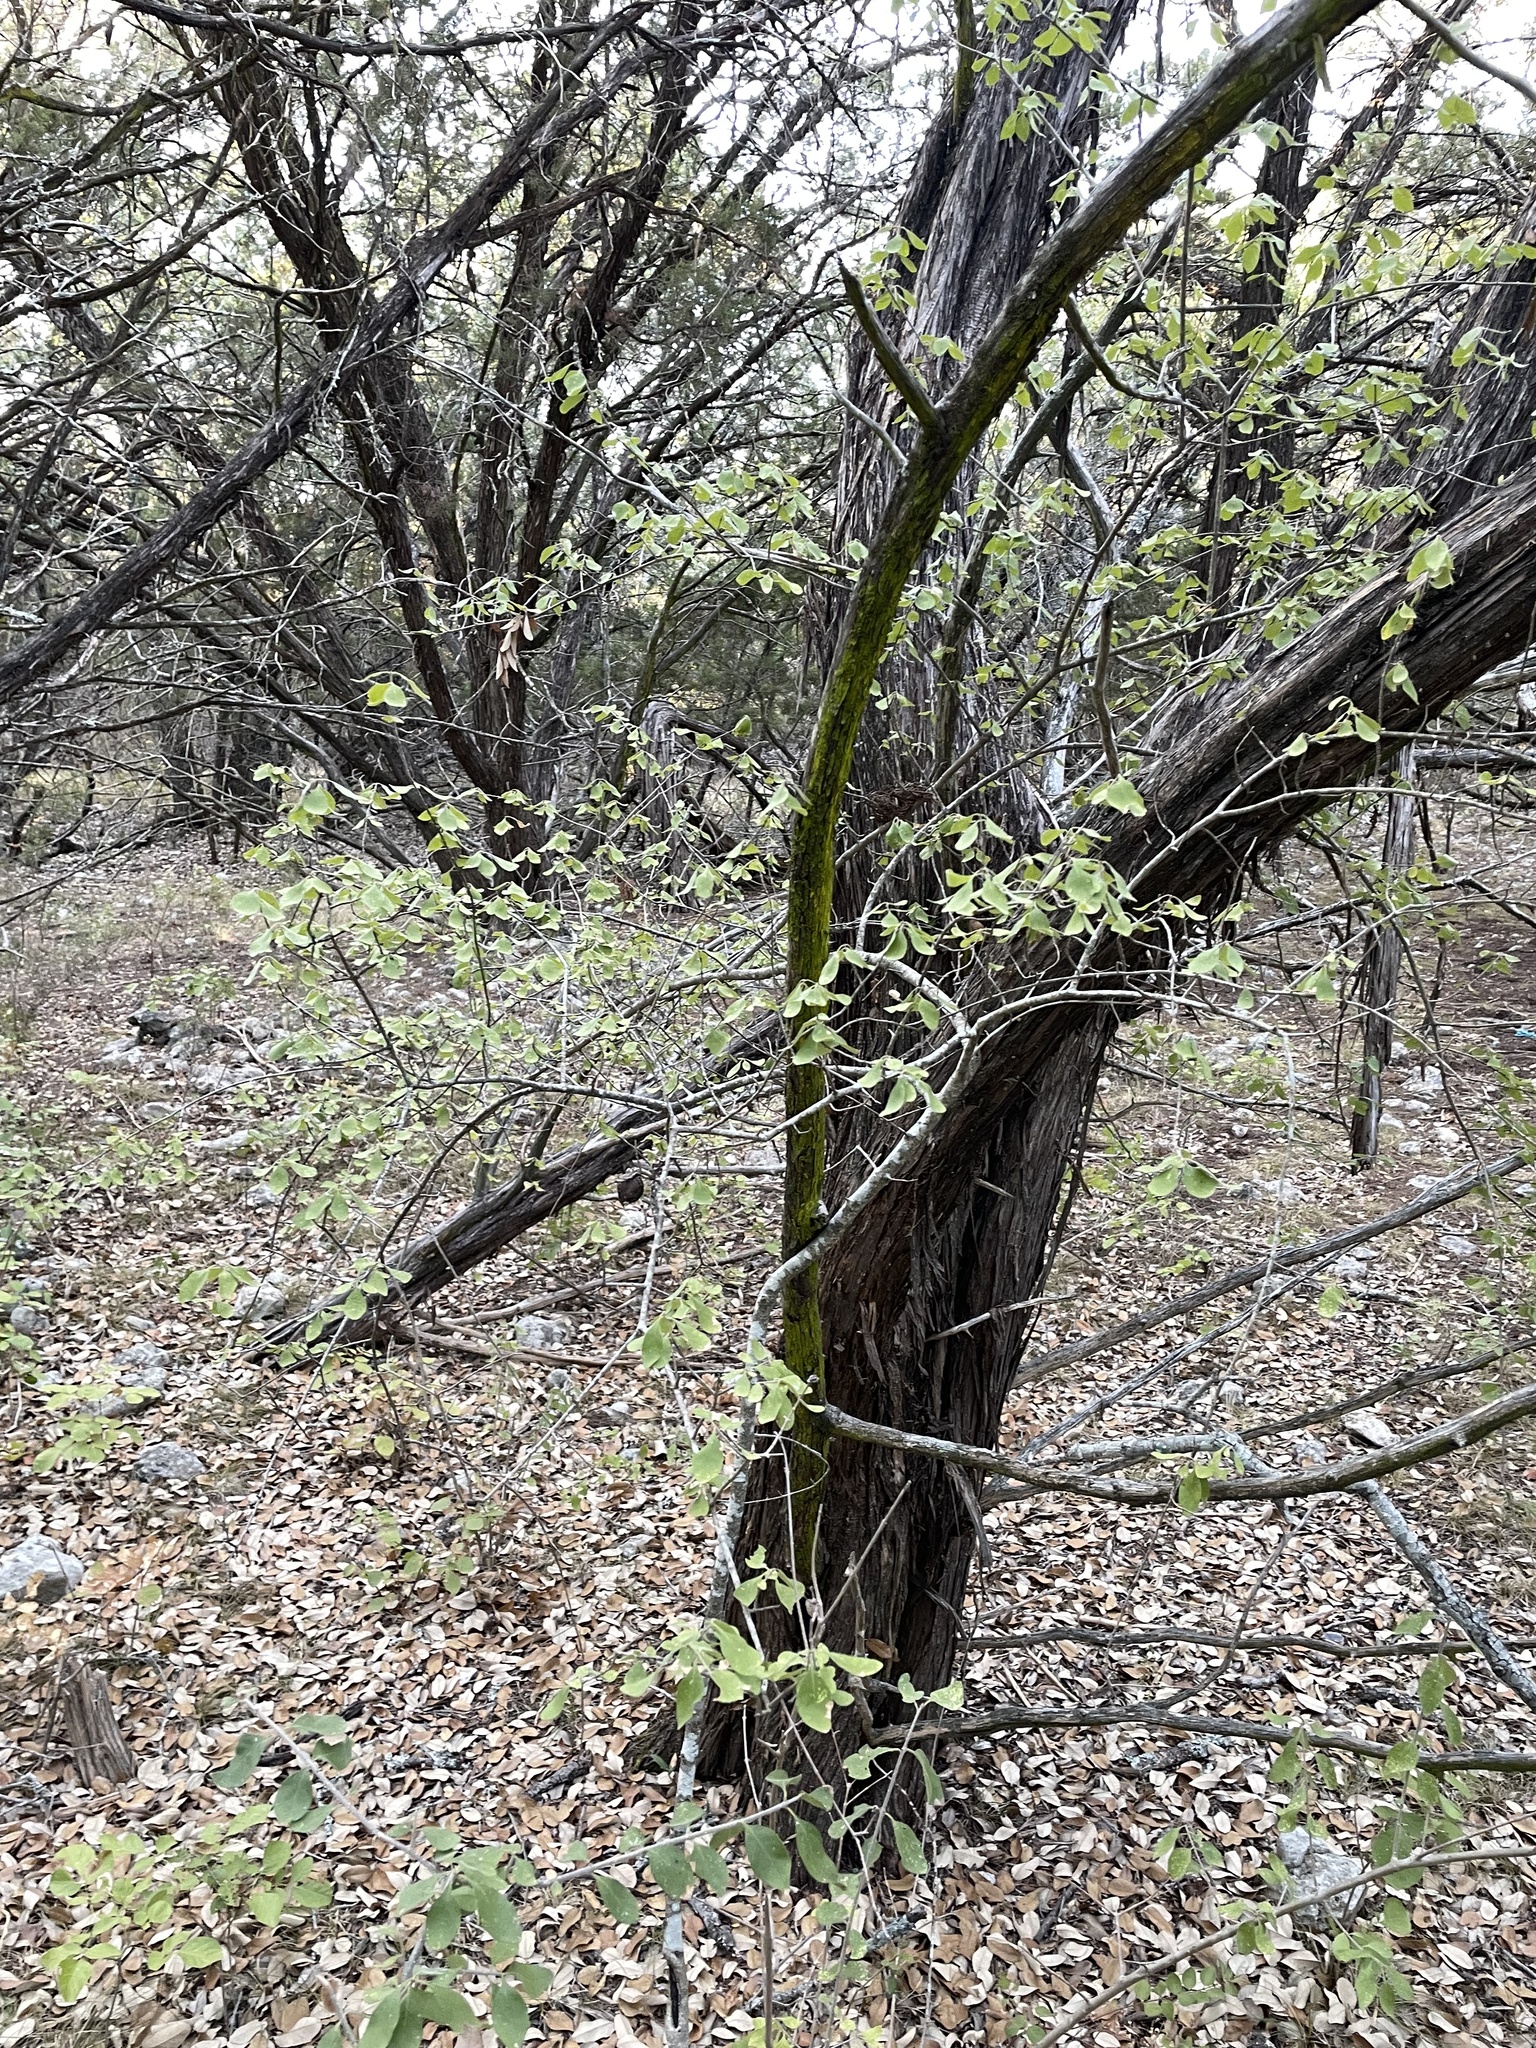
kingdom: Plantae
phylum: Tracheophyta
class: Magnoliopsida
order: Lamiales
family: Oleaceae
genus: Forestiera
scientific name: Forestiera pubescens
